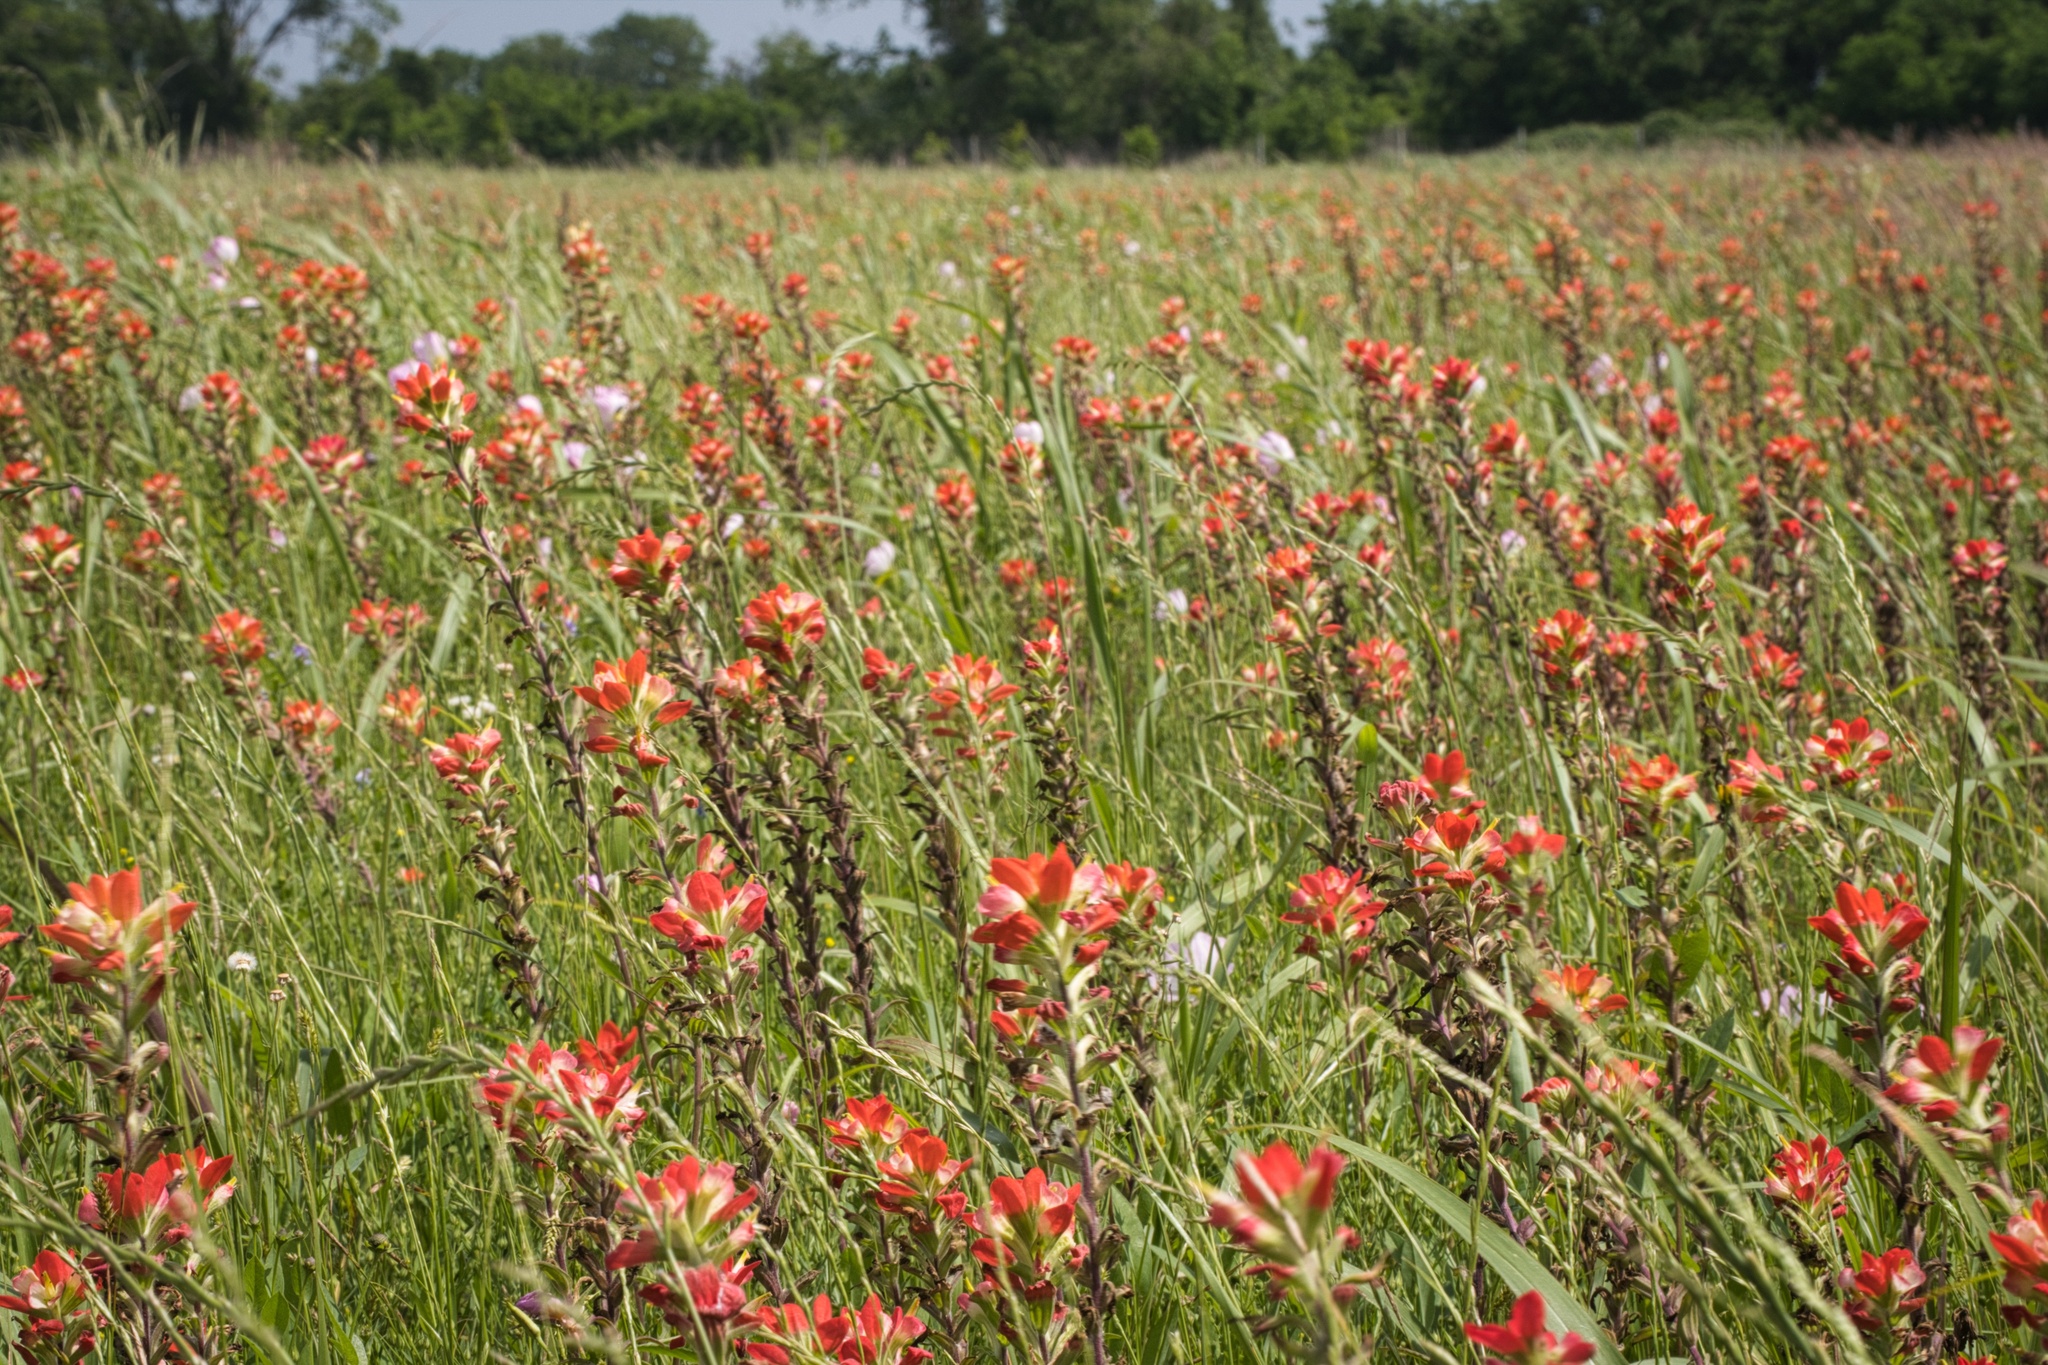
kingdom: Plantae
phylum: Tracheophyta
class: Magnoliopsida
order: Lamiales
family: Orobanchaceae
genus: Castilleja
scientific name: Castilleja indivisa
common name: Texas paintbrush
